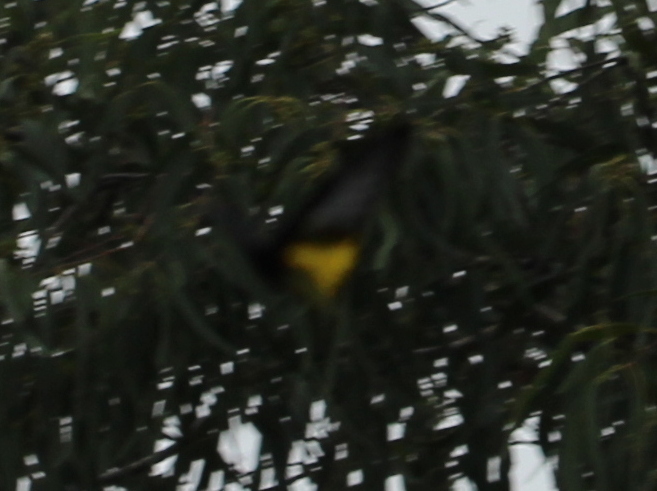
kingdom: Animalia
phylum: Arthropoda
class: Insecta
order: Lepidoptera
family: Papilionidae
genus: Troides
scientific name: Troides minos
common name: Malabar birdwing
